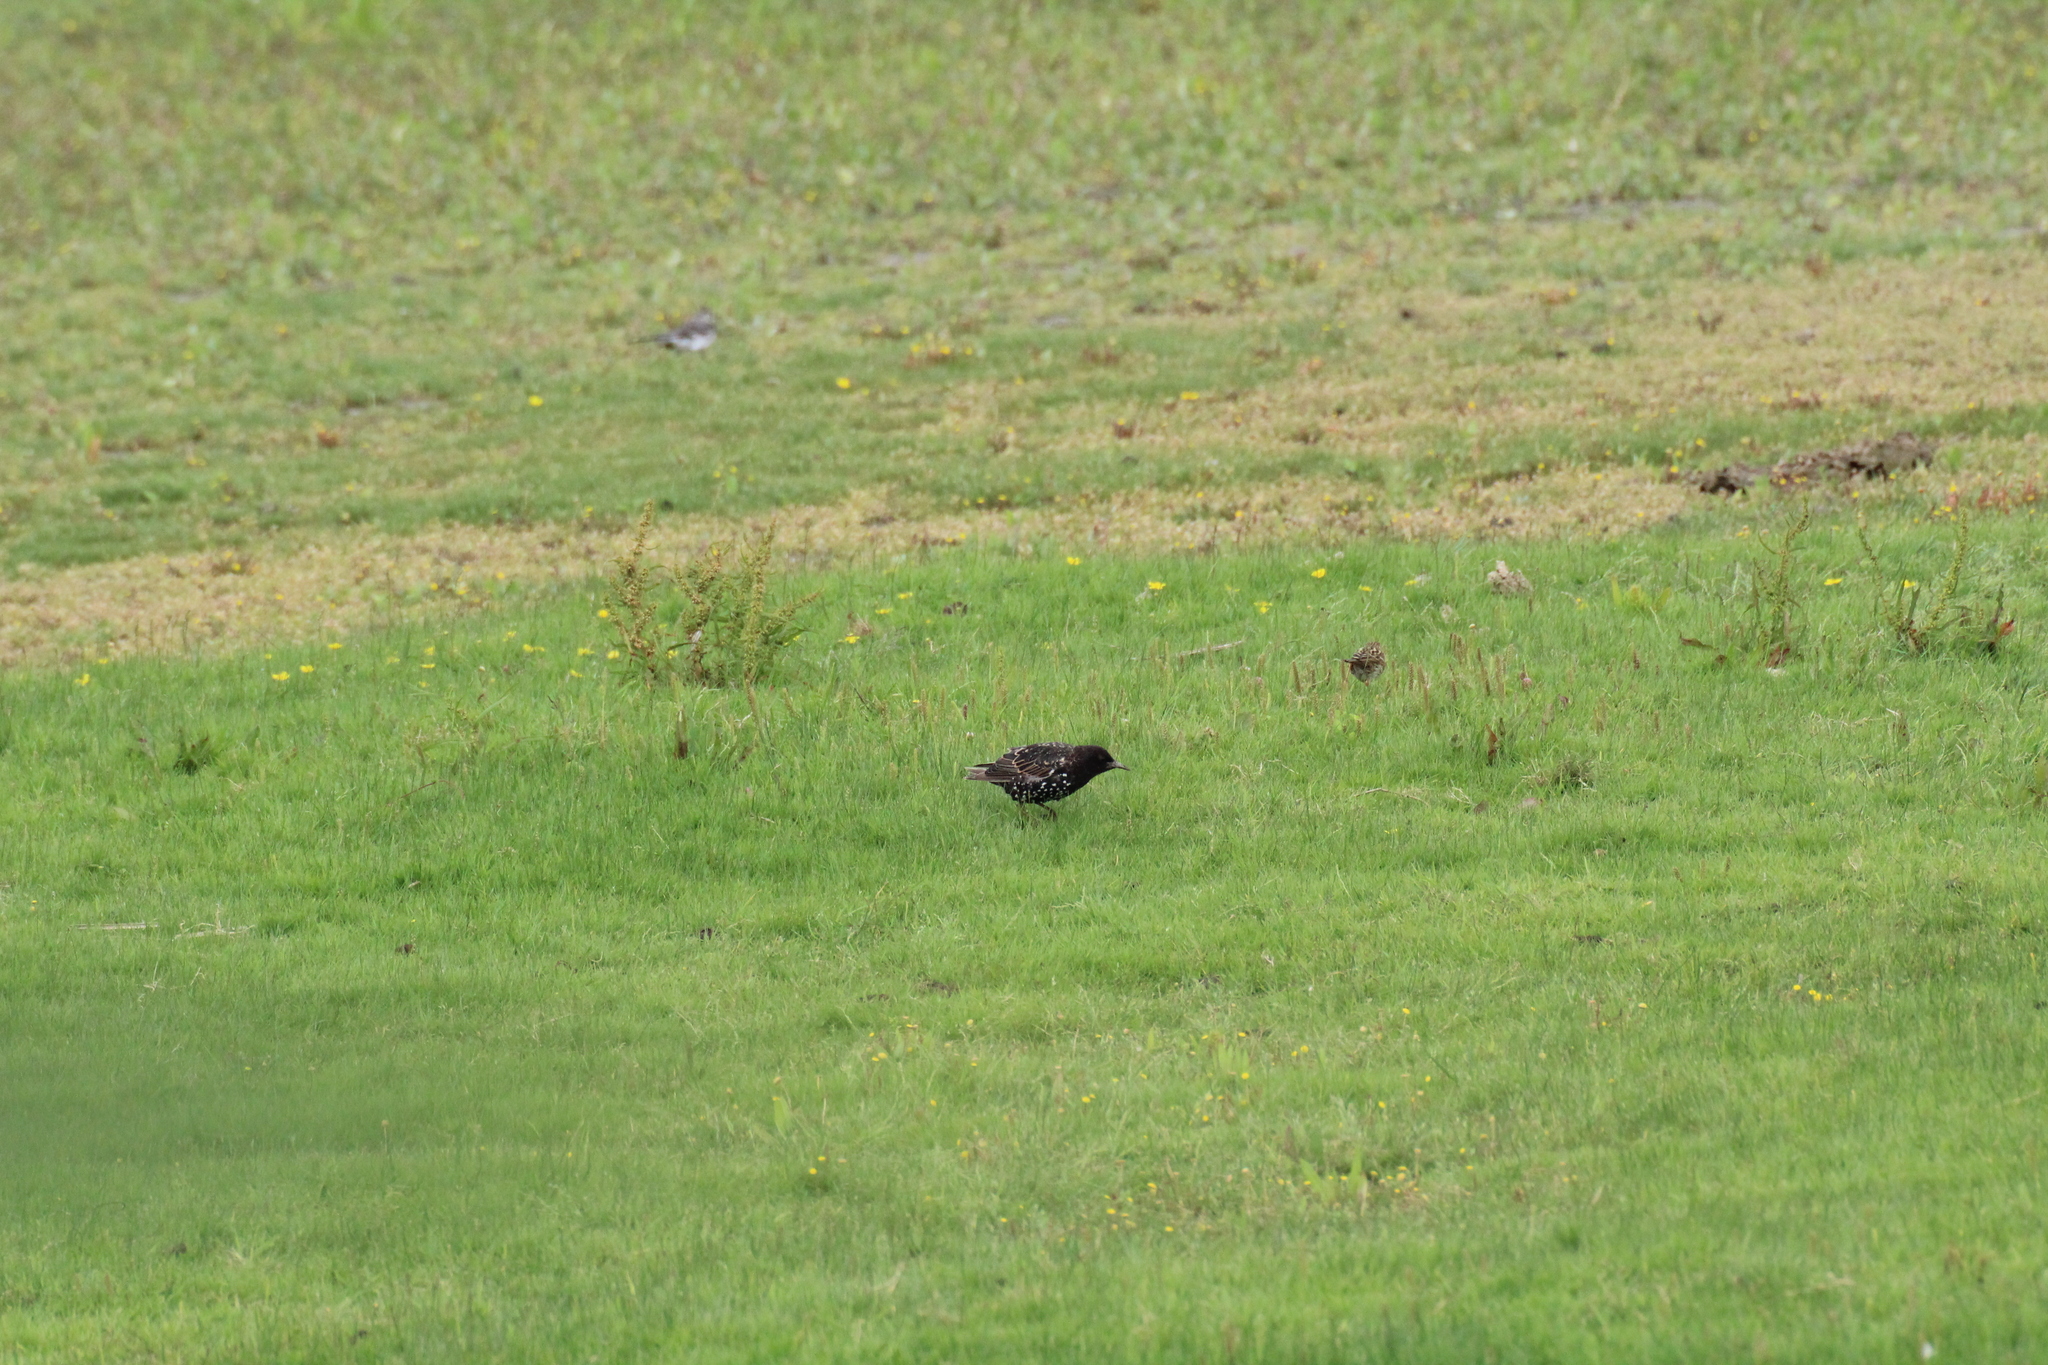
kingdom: Animalia
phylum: Chordata
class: Aves
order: Passeriformes
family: Sturnidae
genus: Sturnus
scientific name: Sturnus vulgaris
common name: Common starling
